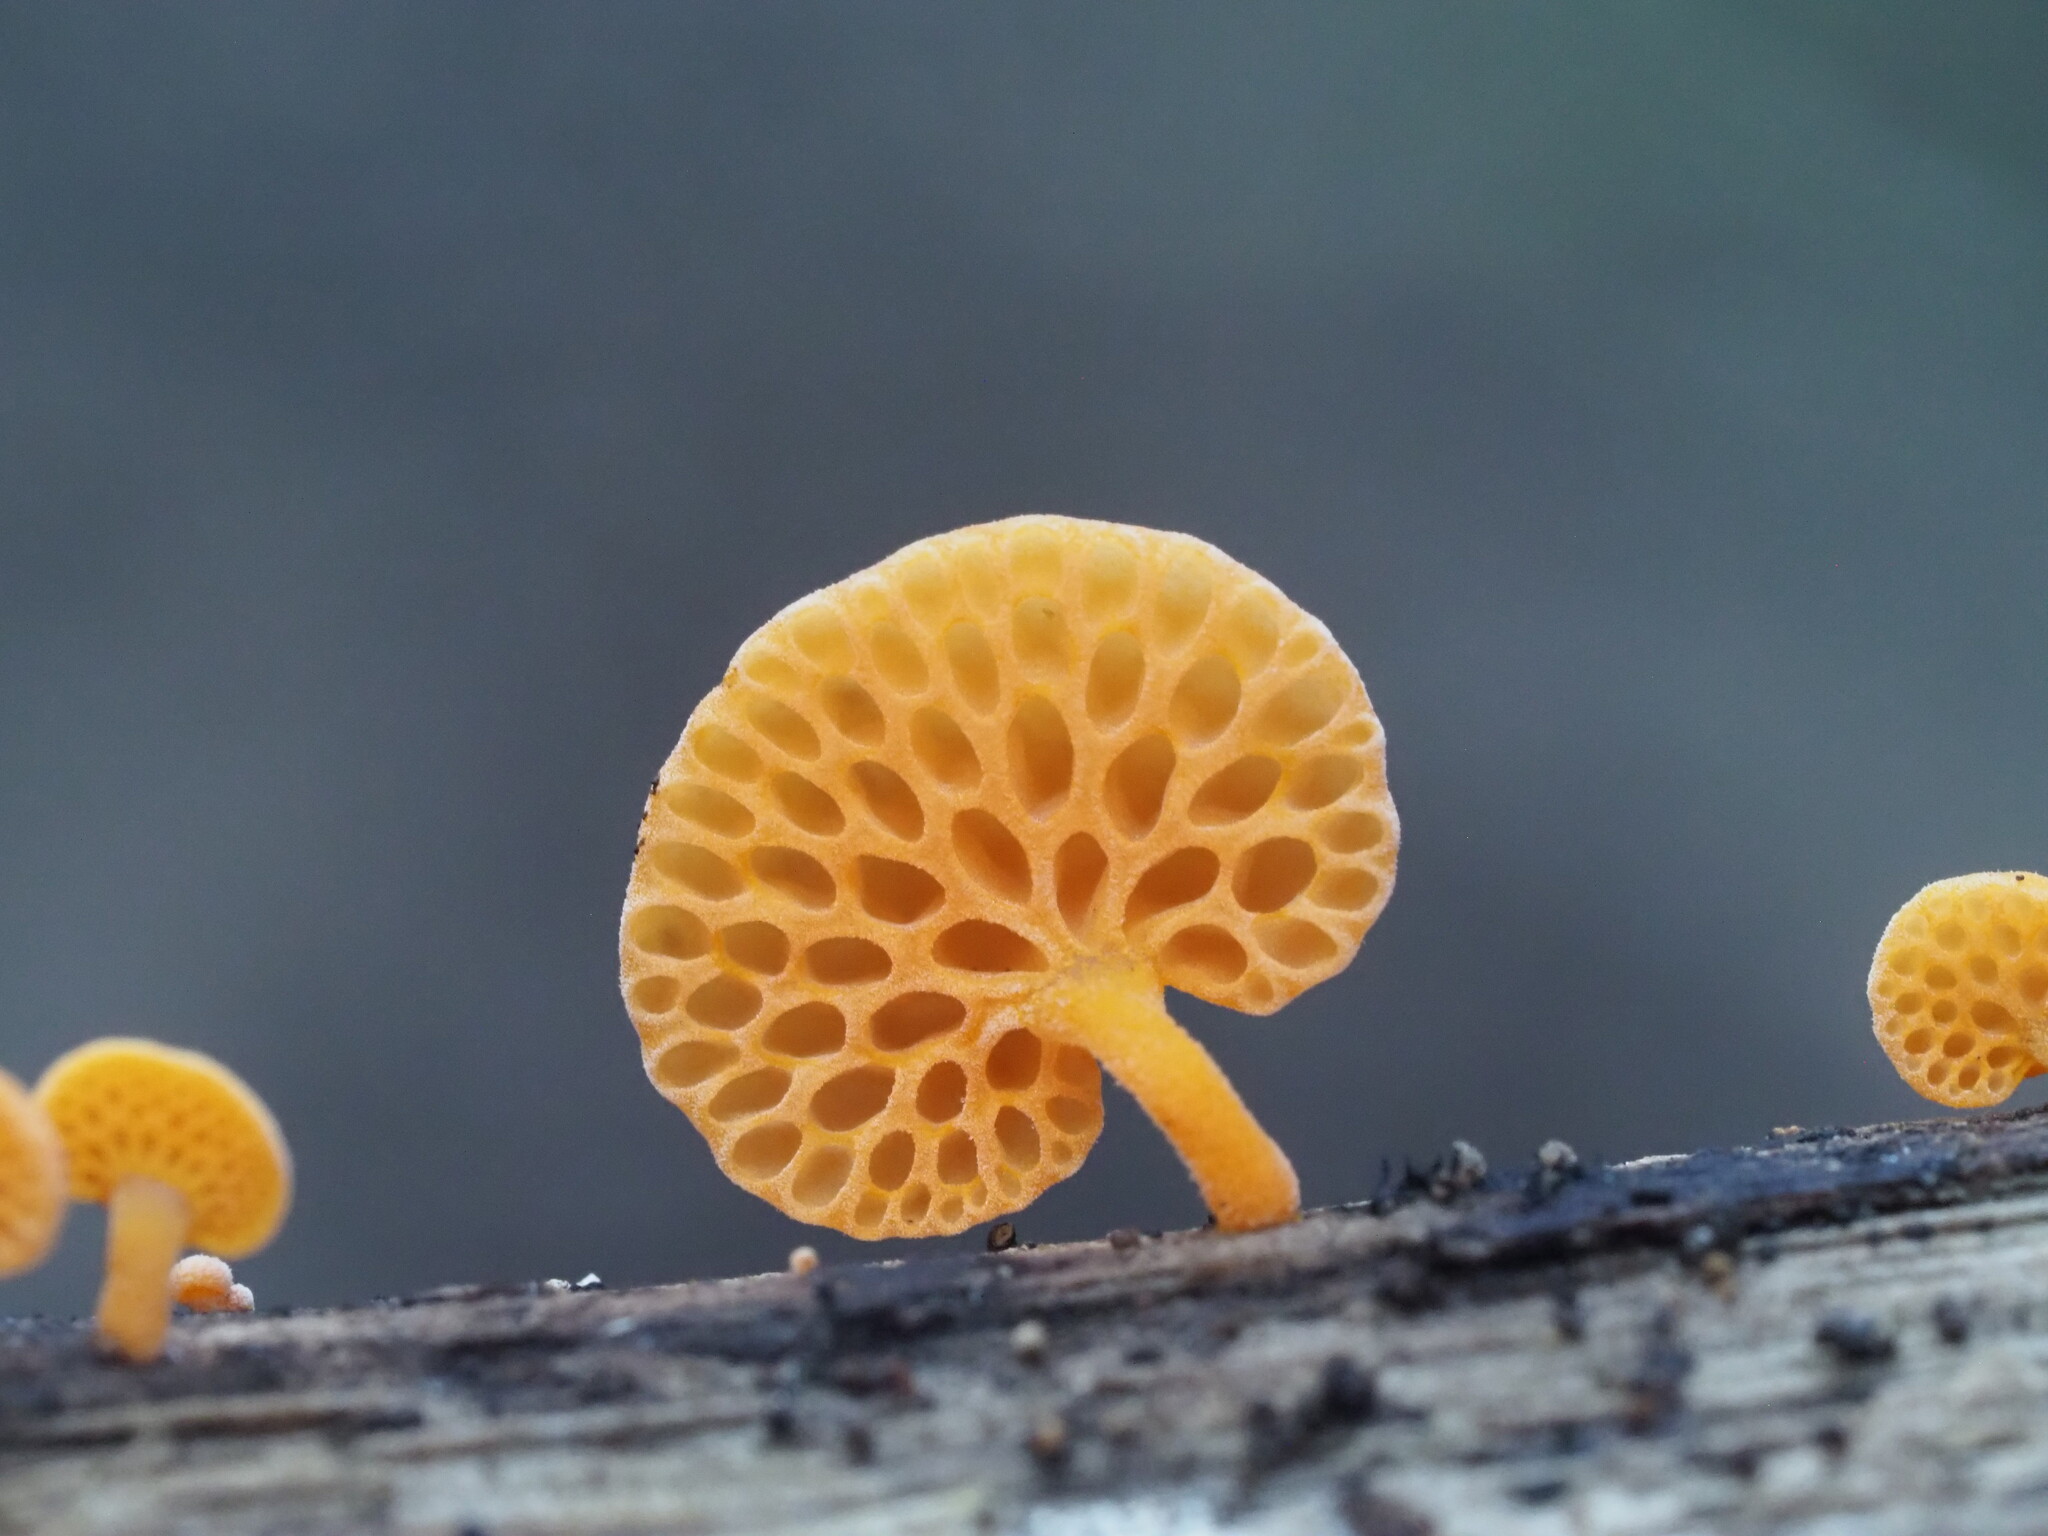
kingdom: Fungi
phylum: Basidiomycota
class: Agaricomycetes
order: Agaricales
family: Mycenaceae
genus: Favolaschia
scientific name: Favolaschia claudopus
